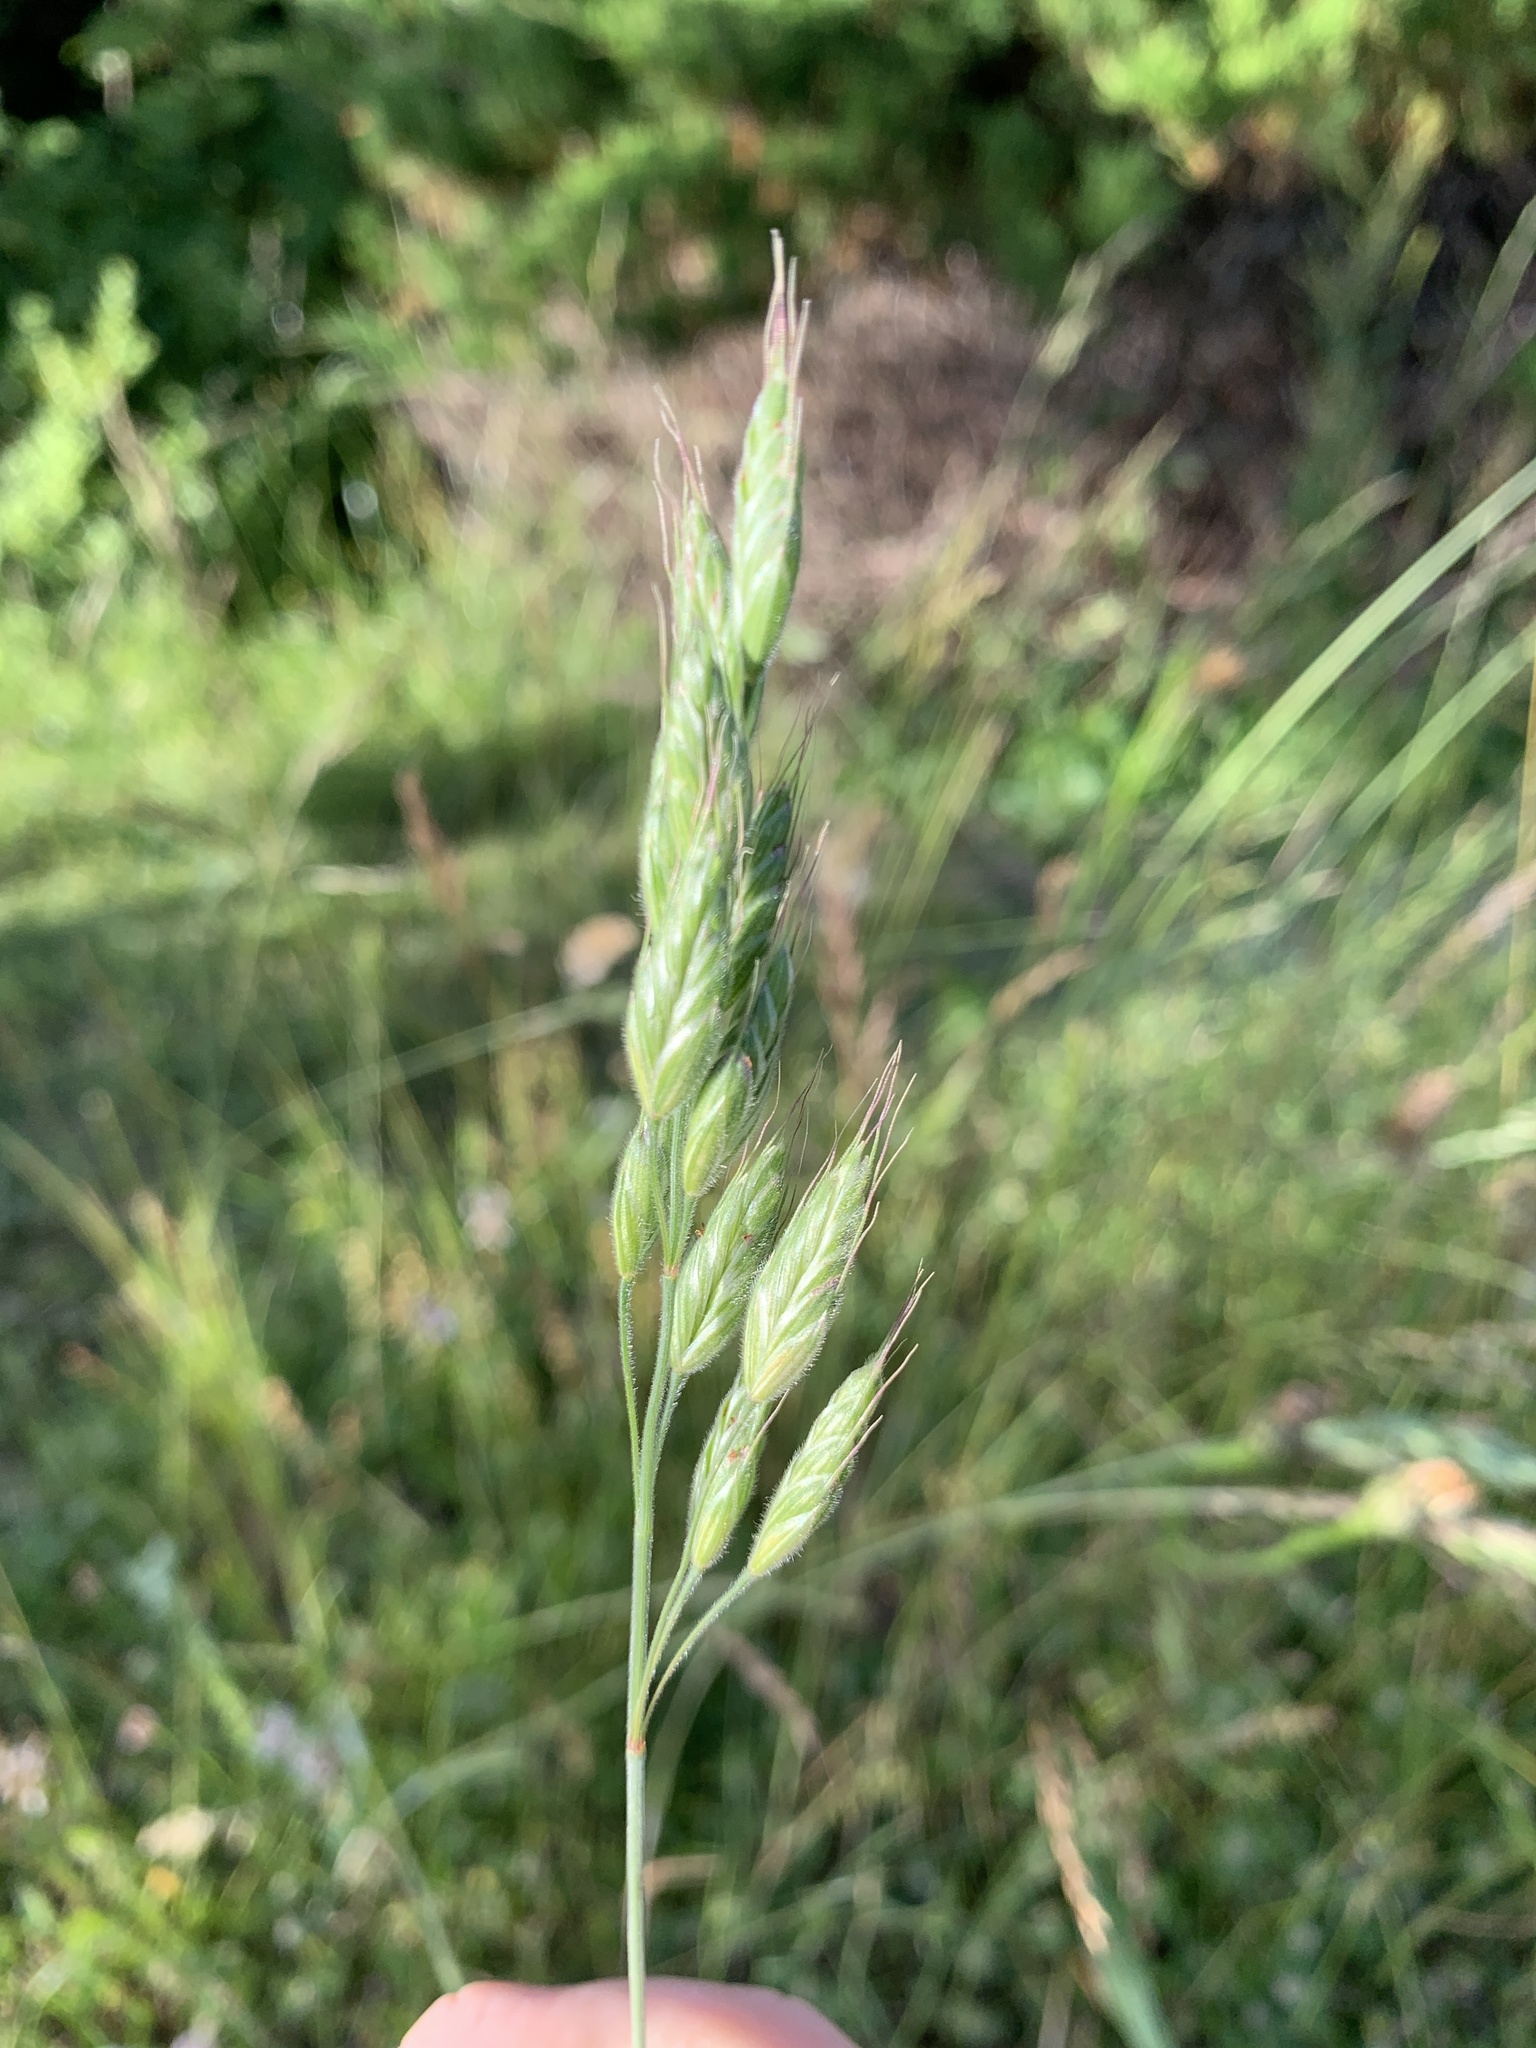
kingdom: Plantae
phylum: Tracheophyta
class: Liliopsida
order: Poales
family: Poaceae
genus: Bromus
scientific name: Bromus hordeaceus
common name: Soft brome
